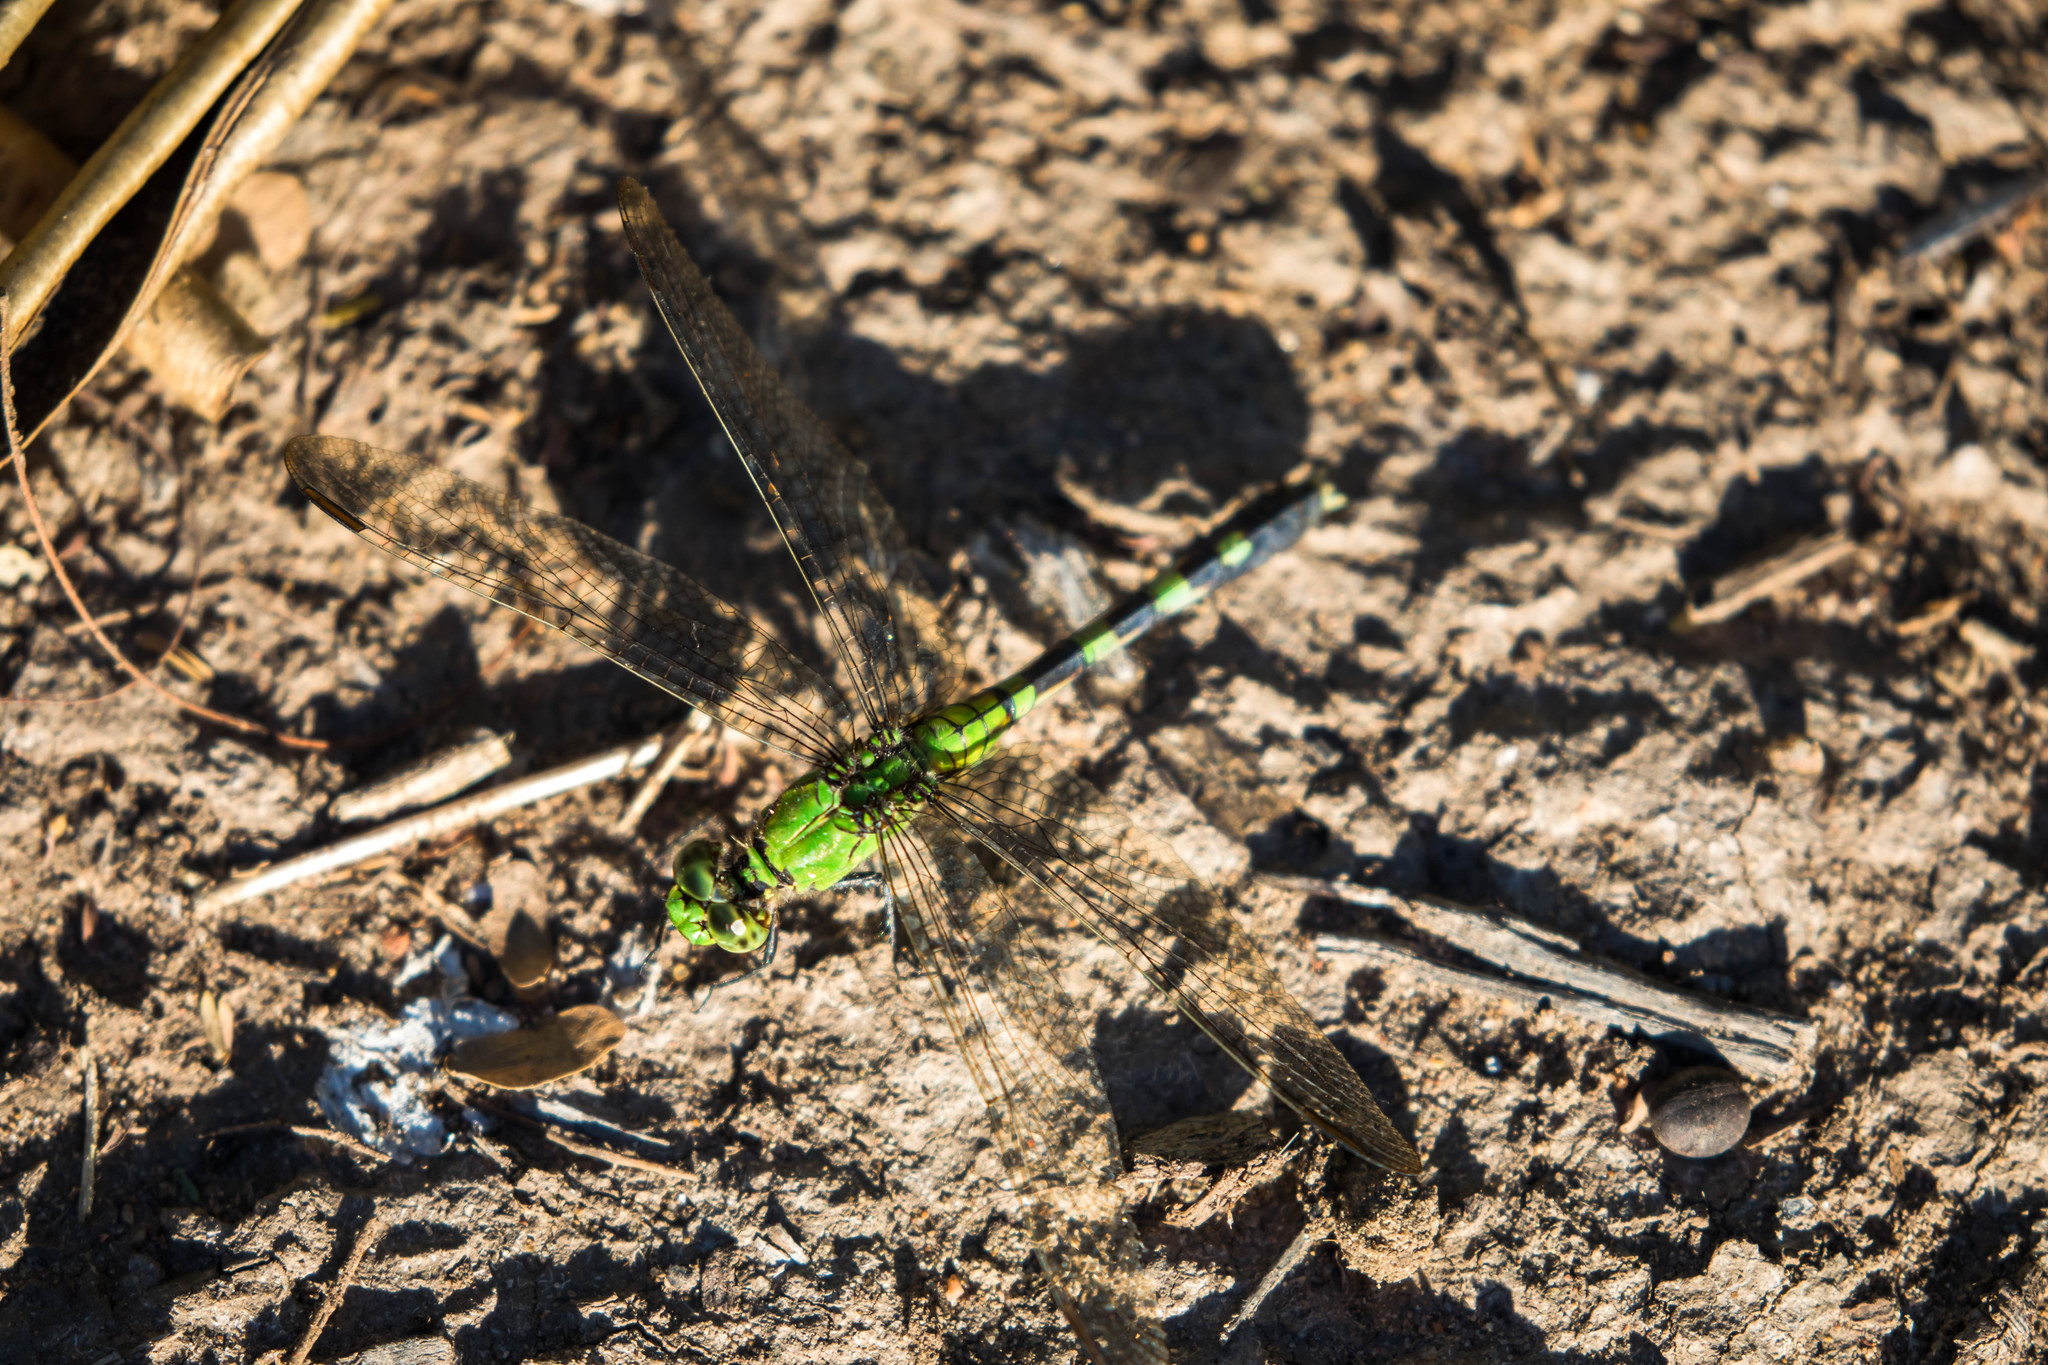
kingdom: Animalia
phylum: Arthropoda
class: Insecta
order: Odonata
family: Libellulidae
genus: Erythemis
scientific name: Erythemis simplicicollis
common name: Eastern pondhawk
